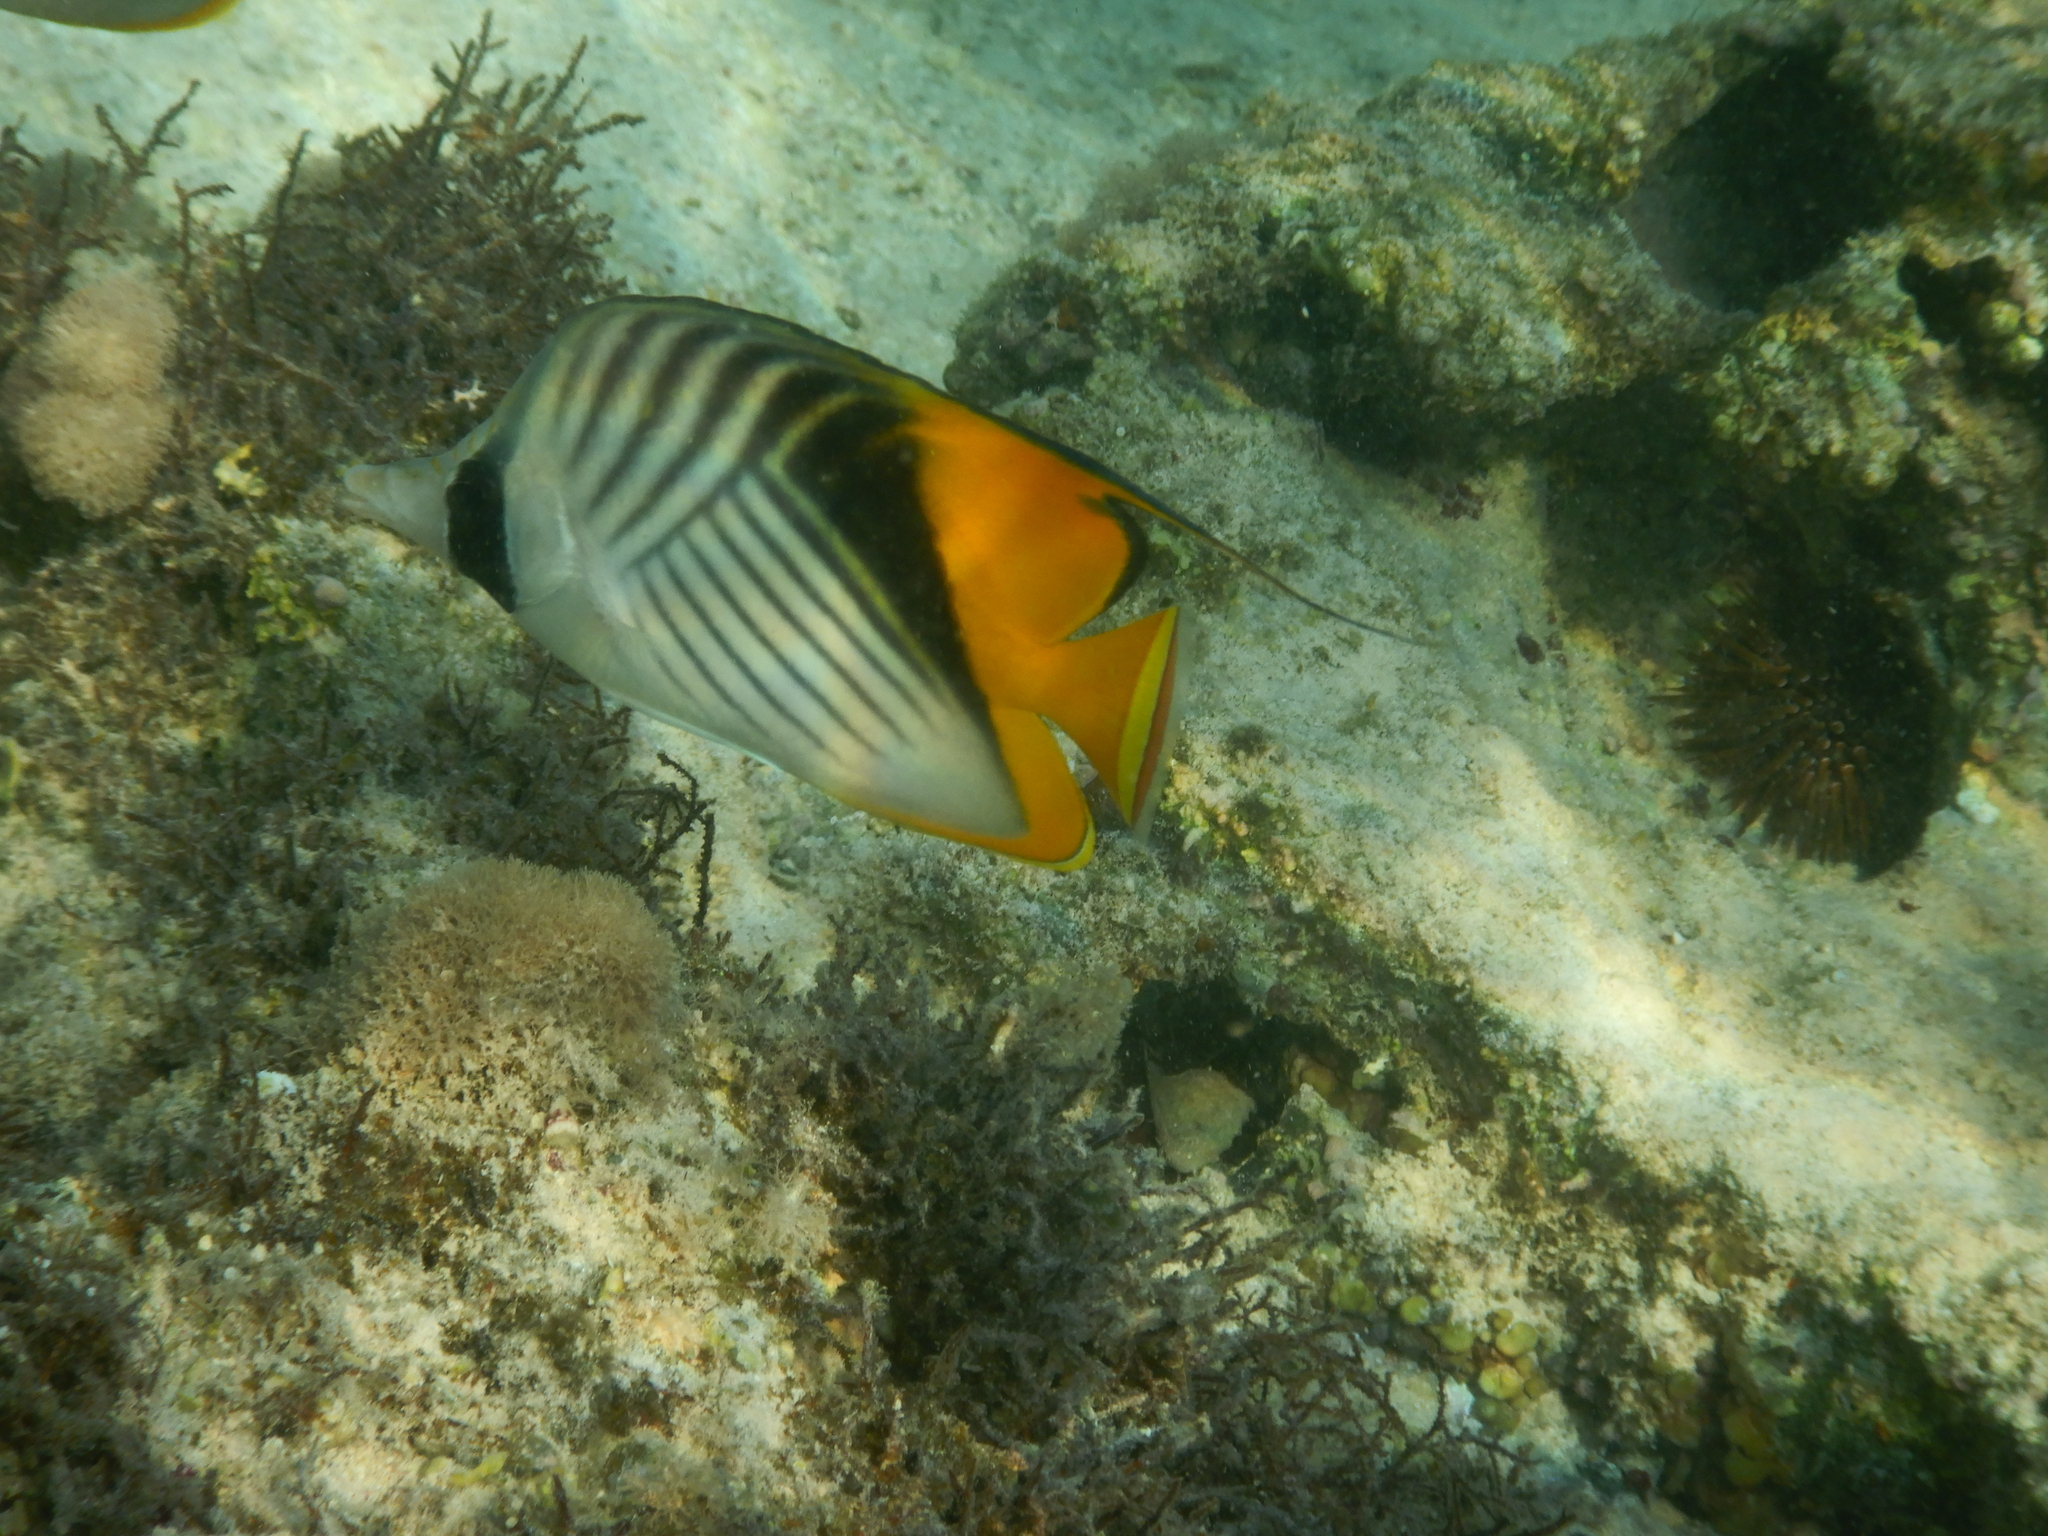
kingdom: Animalia
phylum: Chordata
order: Perciformes
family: Chaetodontidae
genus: Chaetodon
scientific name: Chaetodon auriga
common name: Threadfin butterflyfish
